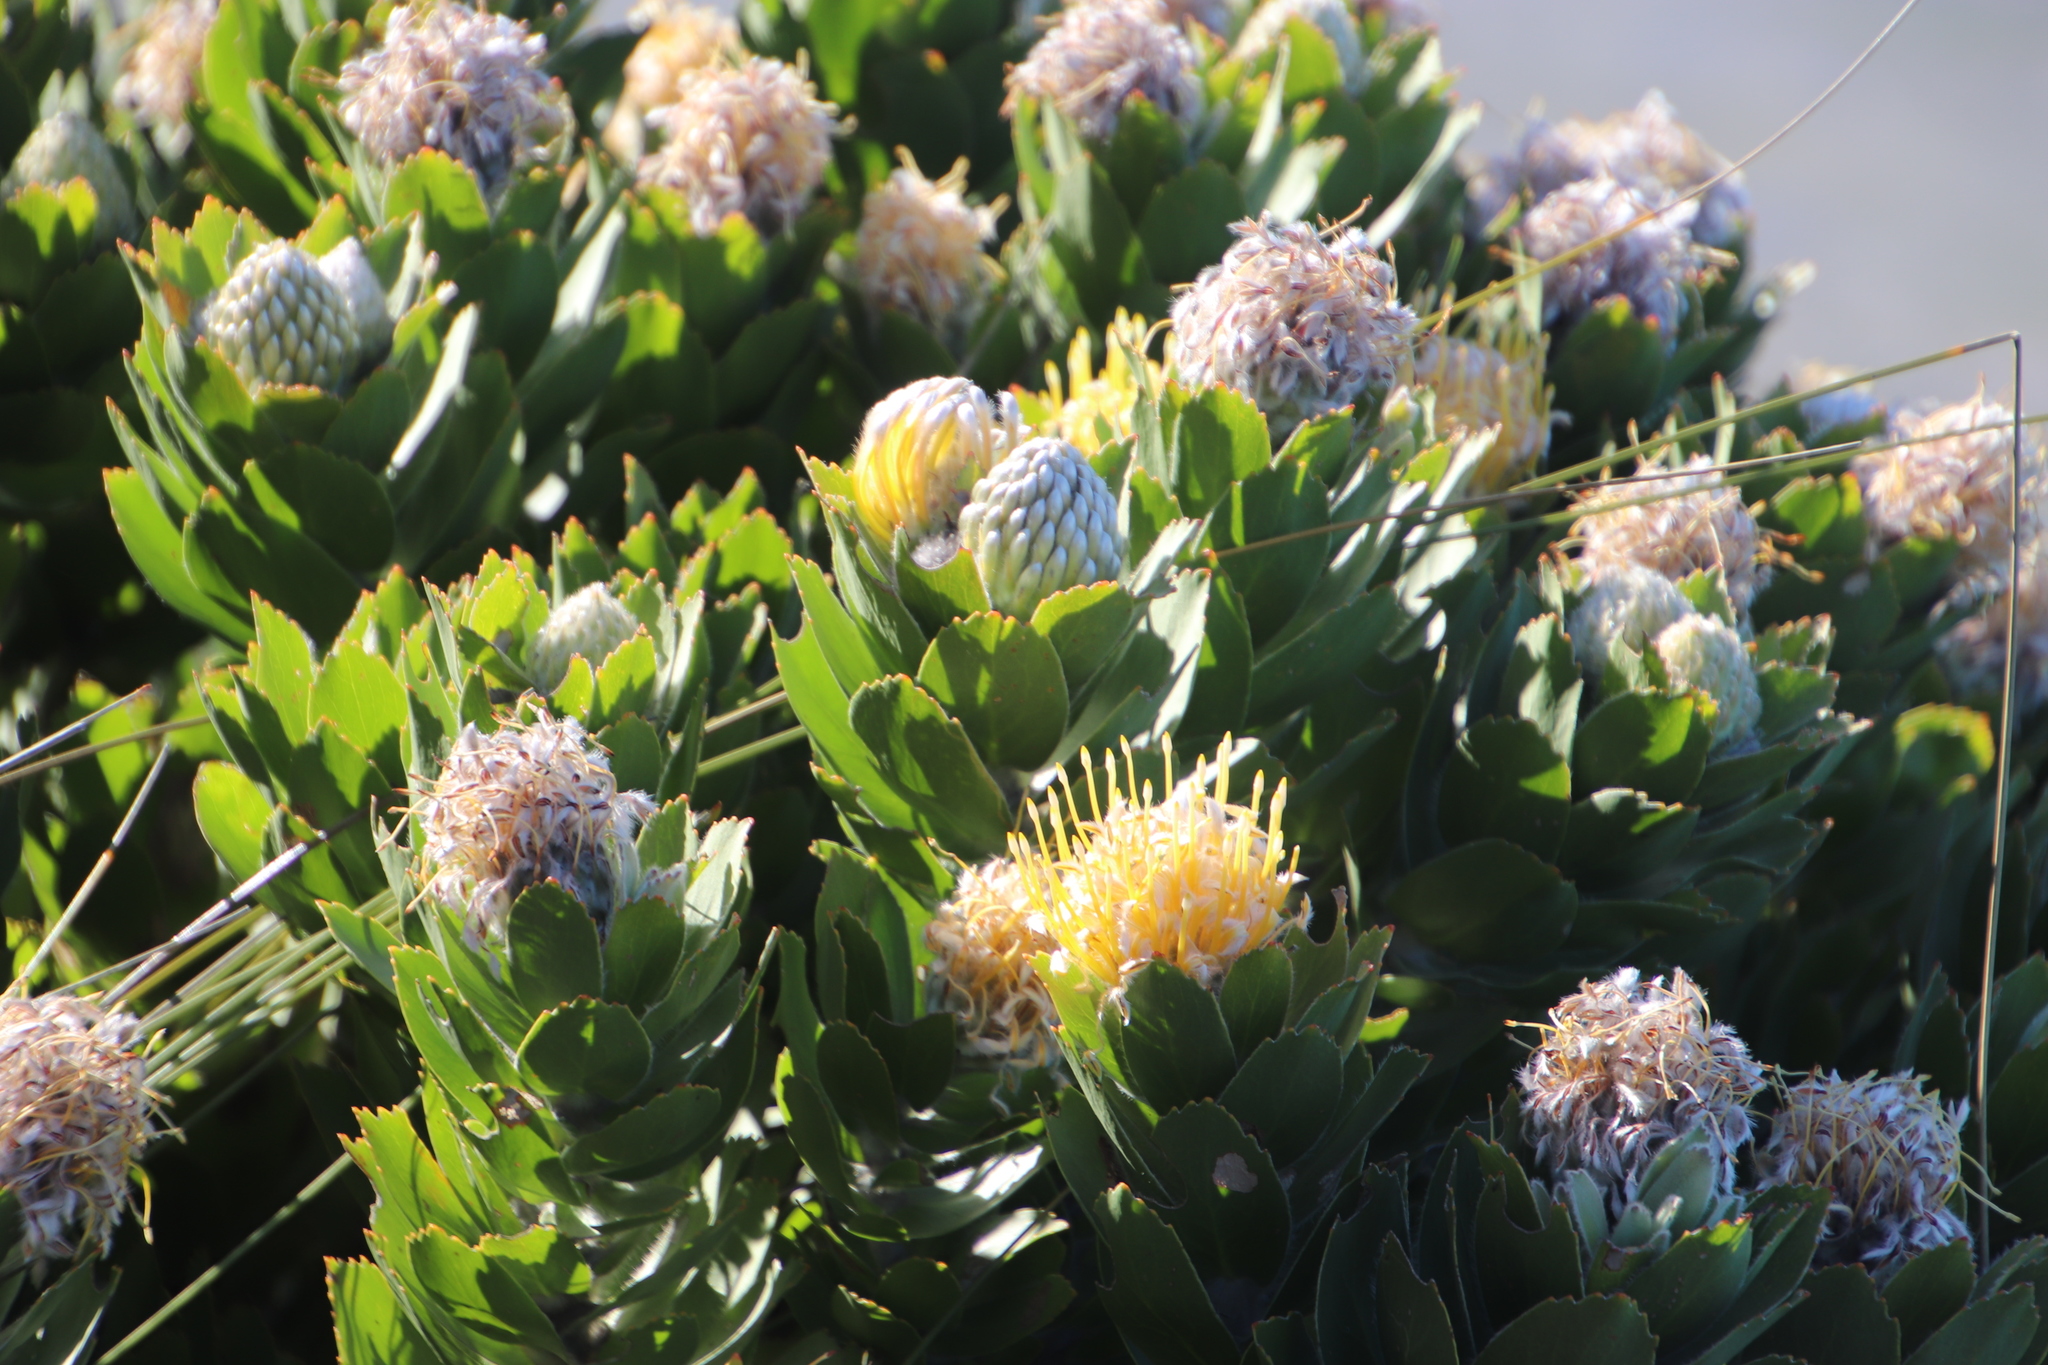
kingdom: Plantae
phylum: Tracheophyta
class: Magnoliopsida
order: Proteales
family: Proteaceae
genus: Leucospermum
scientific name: Leucospermum conocarpodendron
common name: Tree pincushion
